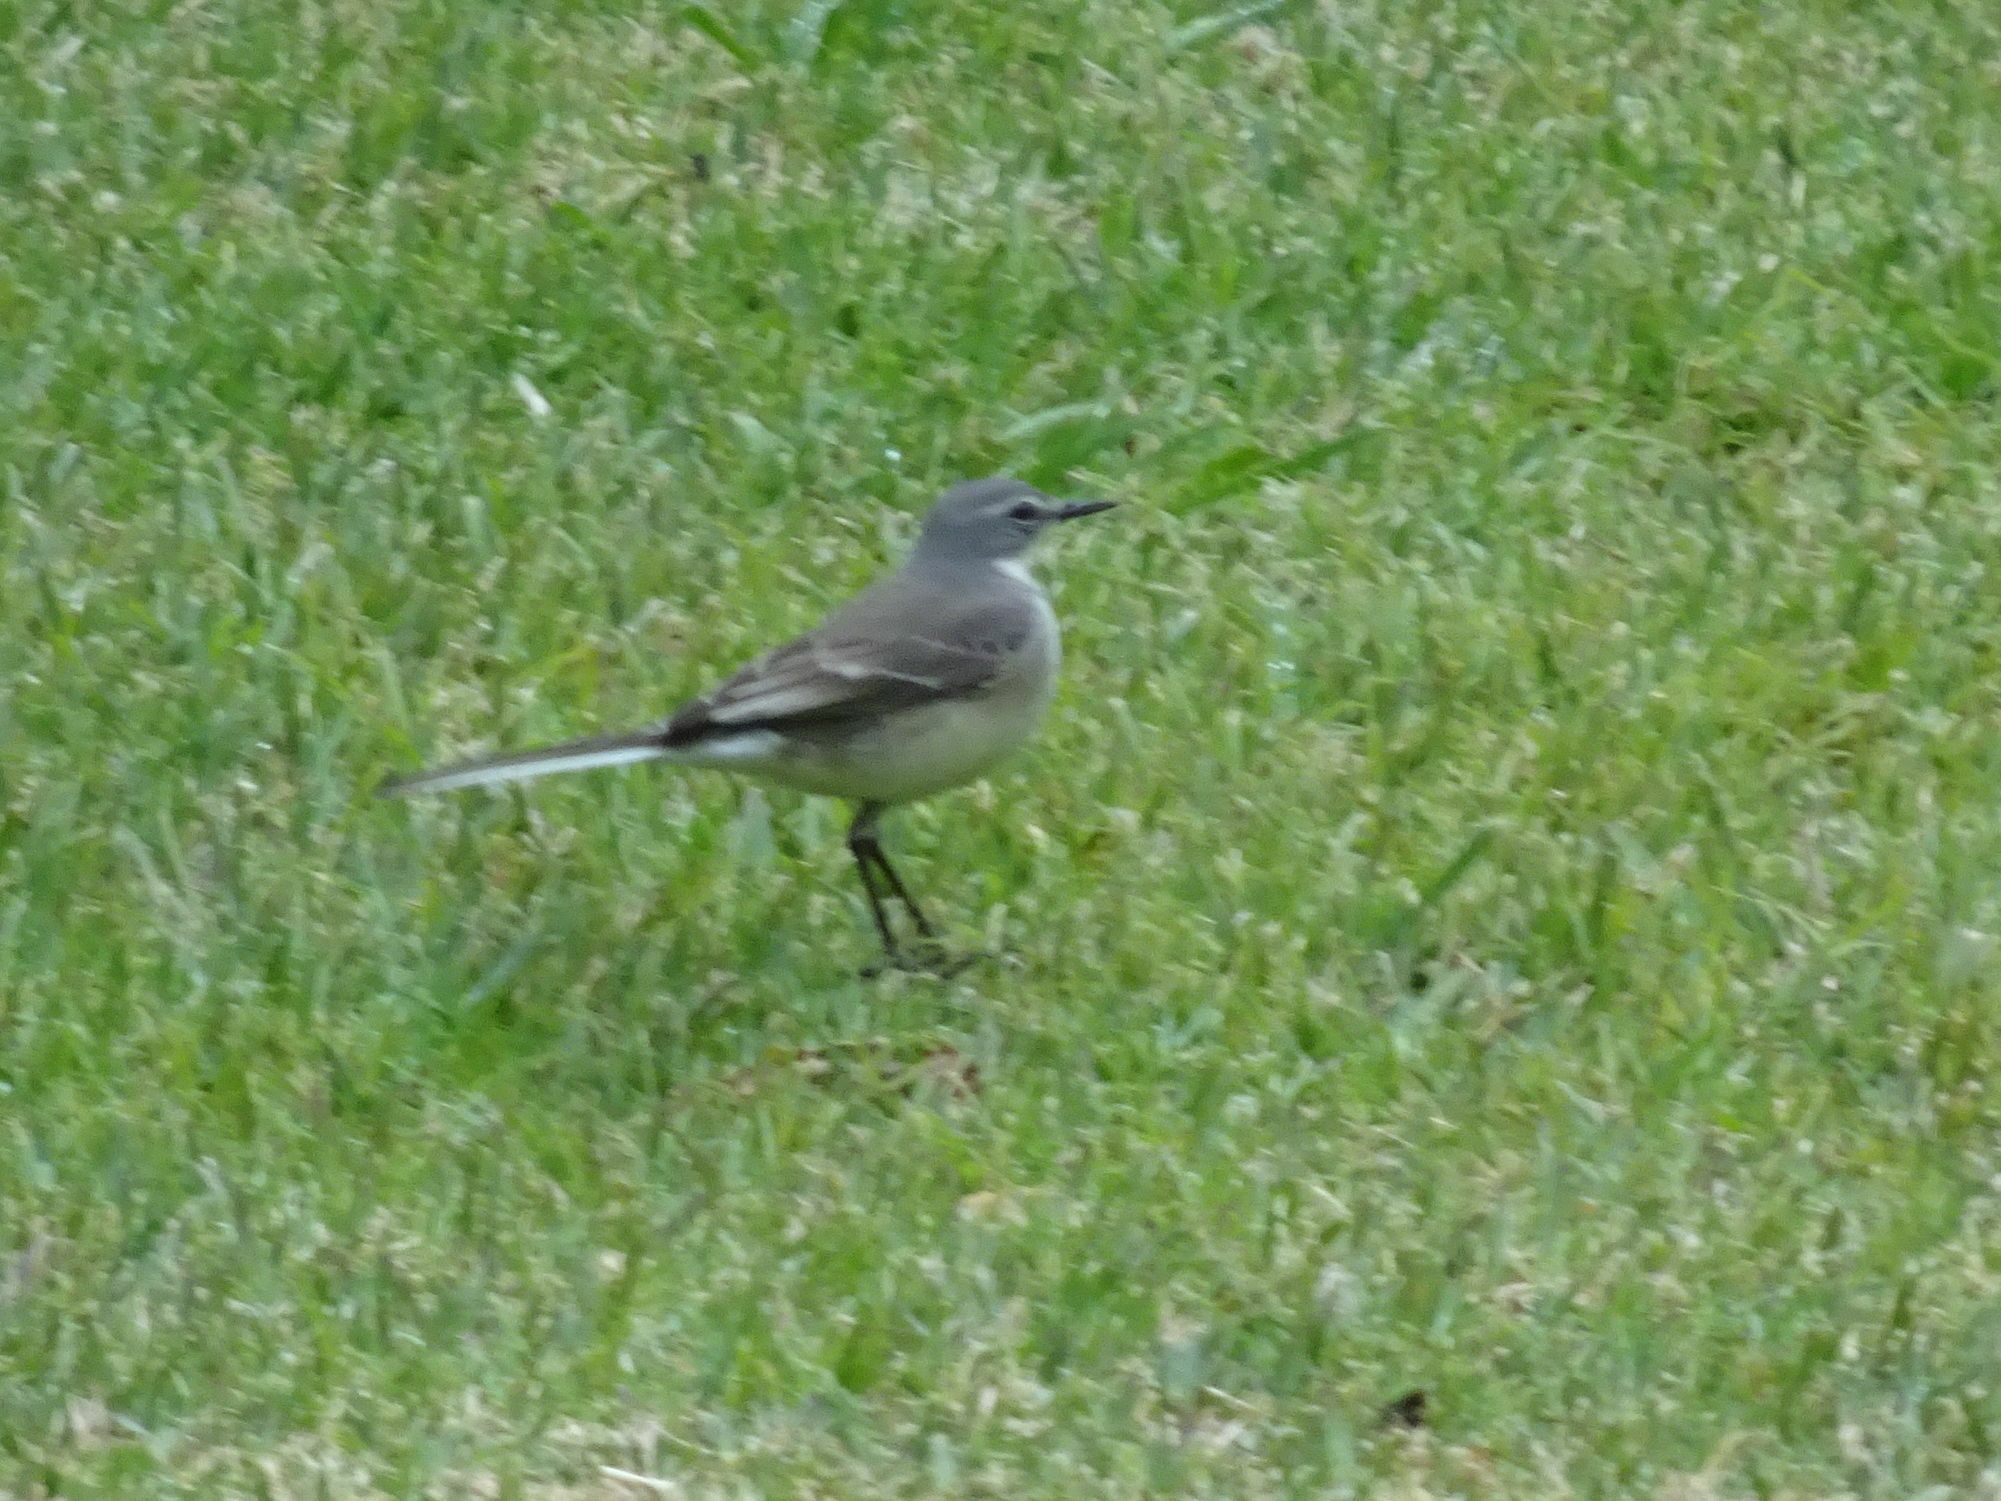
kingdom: Animalia
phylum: Chordata
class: Aves
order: Passeriformes
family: Motacillidae
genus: Motacilla
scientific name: Motacilla capensis
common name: Cape wagtail
